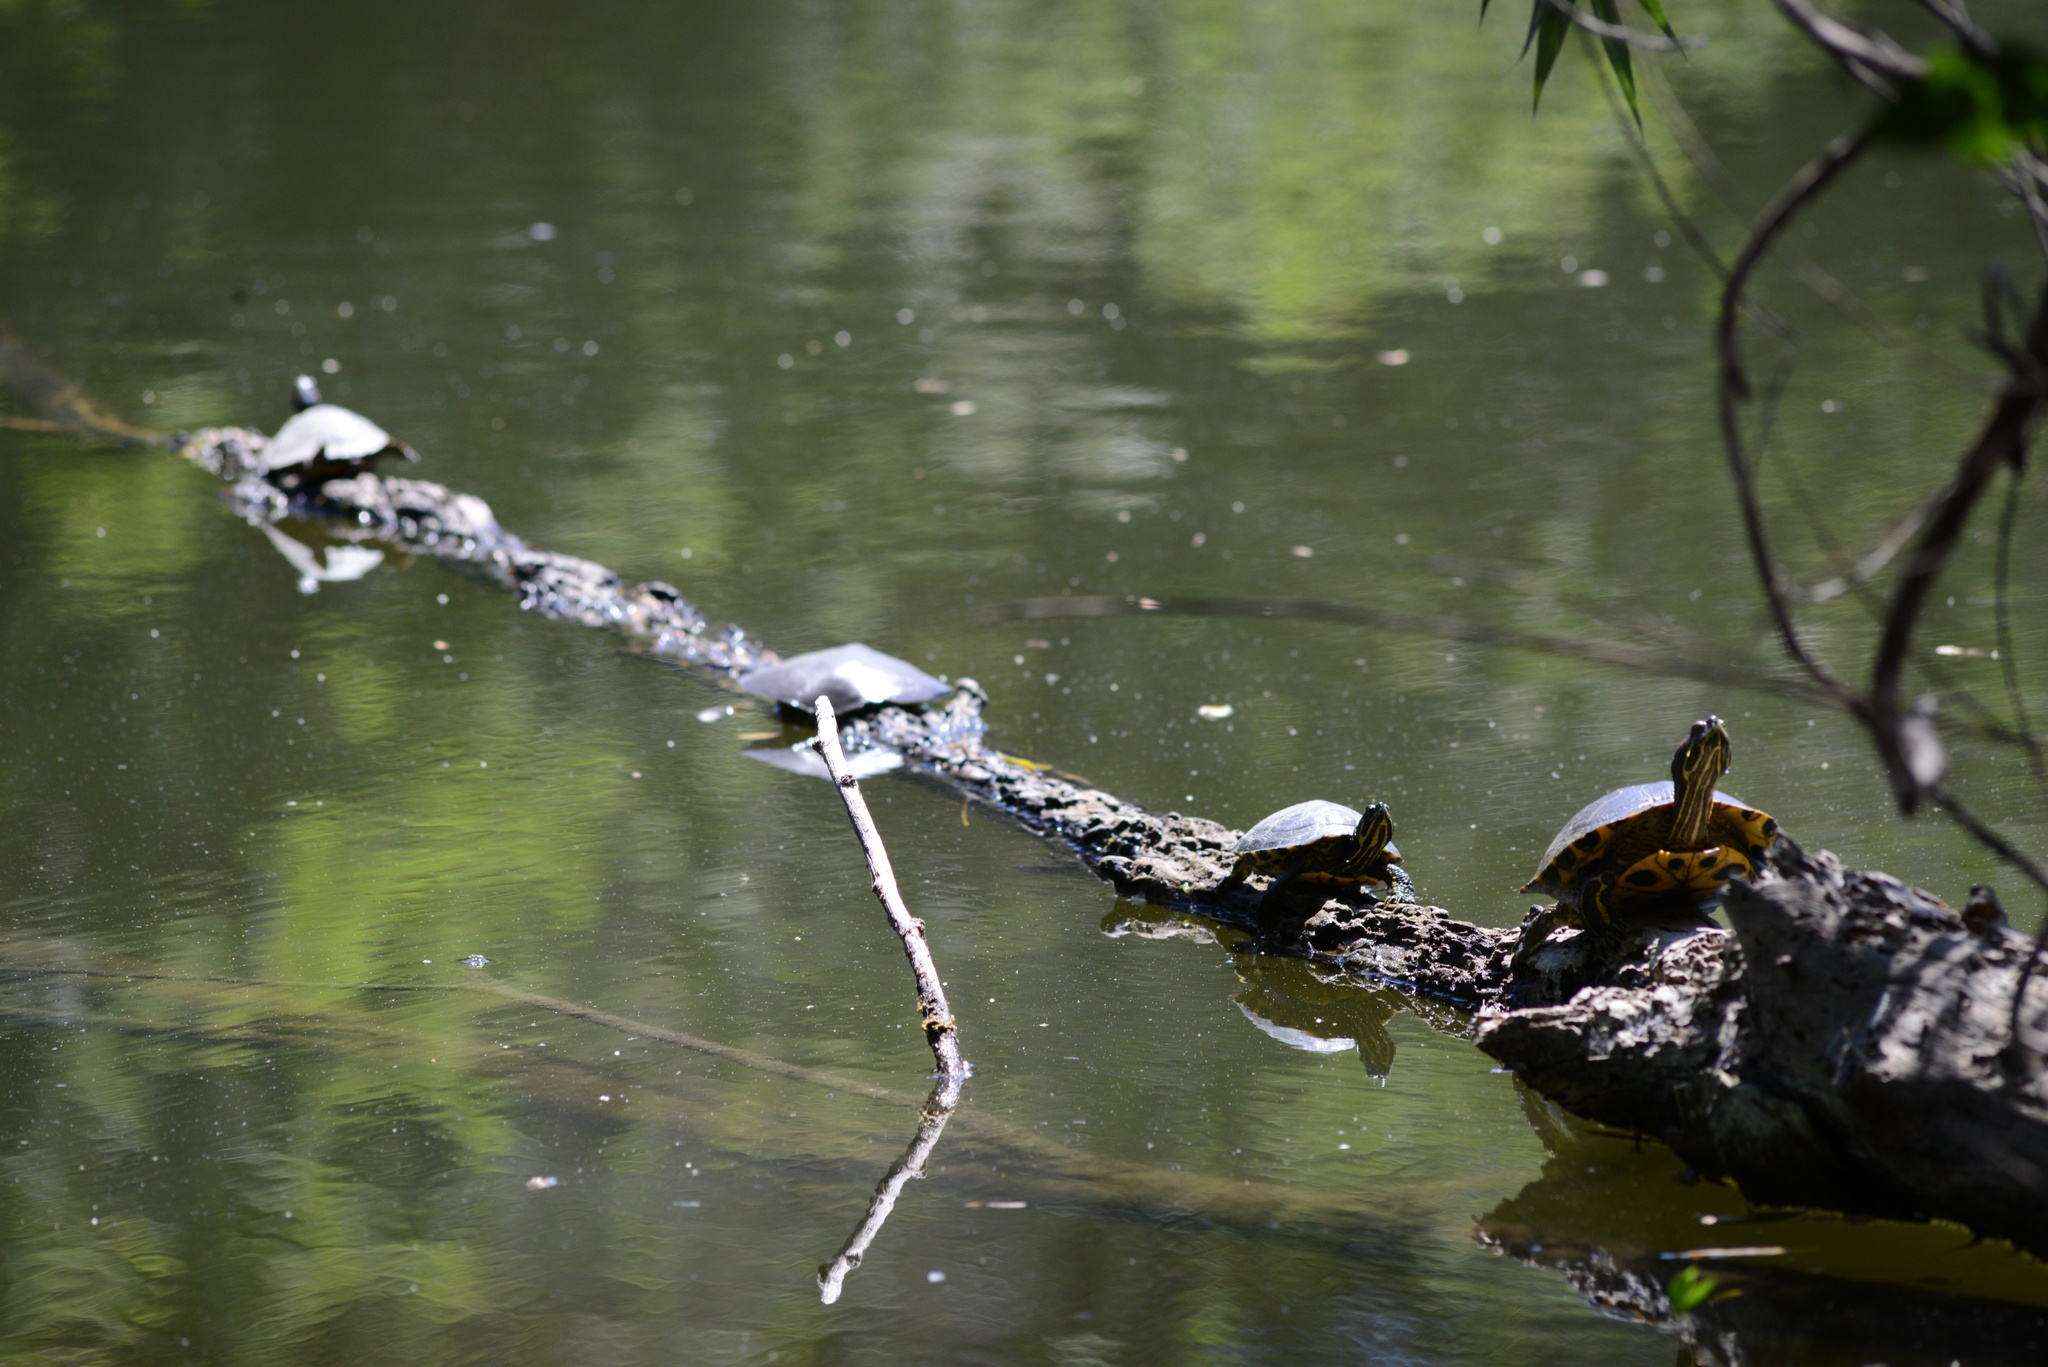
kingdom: Animalia
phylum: Chordata
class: Testudines
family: Emydidae
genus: Trachemys
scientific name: Trachemys scripta
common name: Slider
